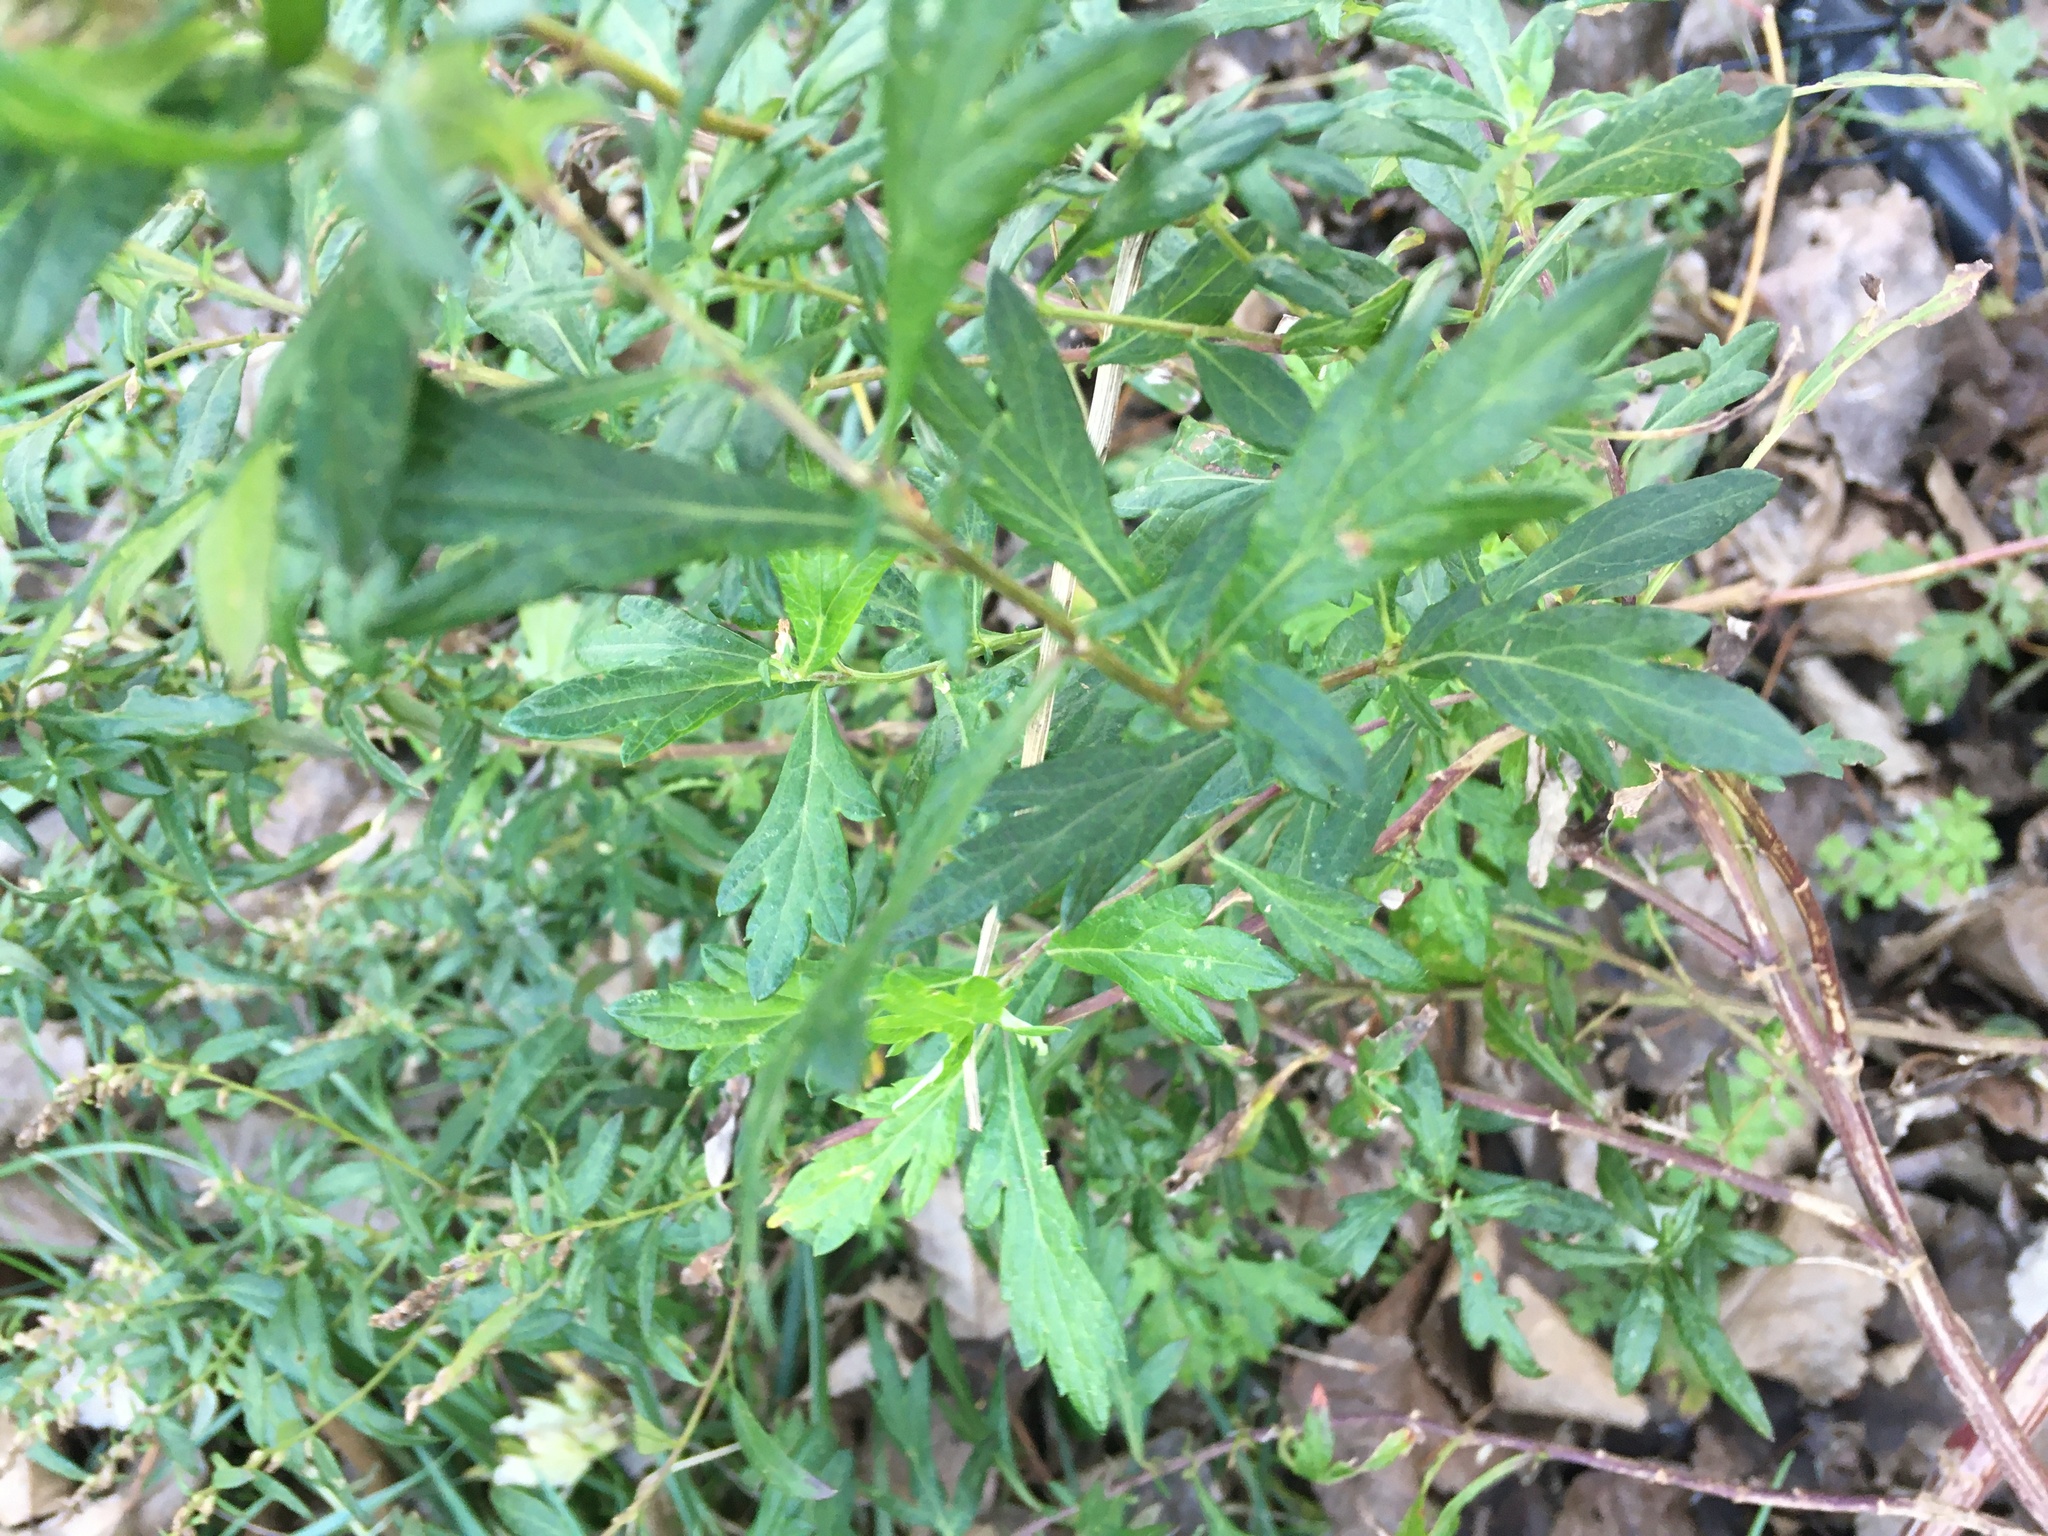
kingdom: Plantae
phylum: Tracheophyta
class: Magnoliopsida
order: Asterales
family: Asteraceae
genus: Artemisia
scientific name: Artemisia vulgaris
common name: Mugwort
